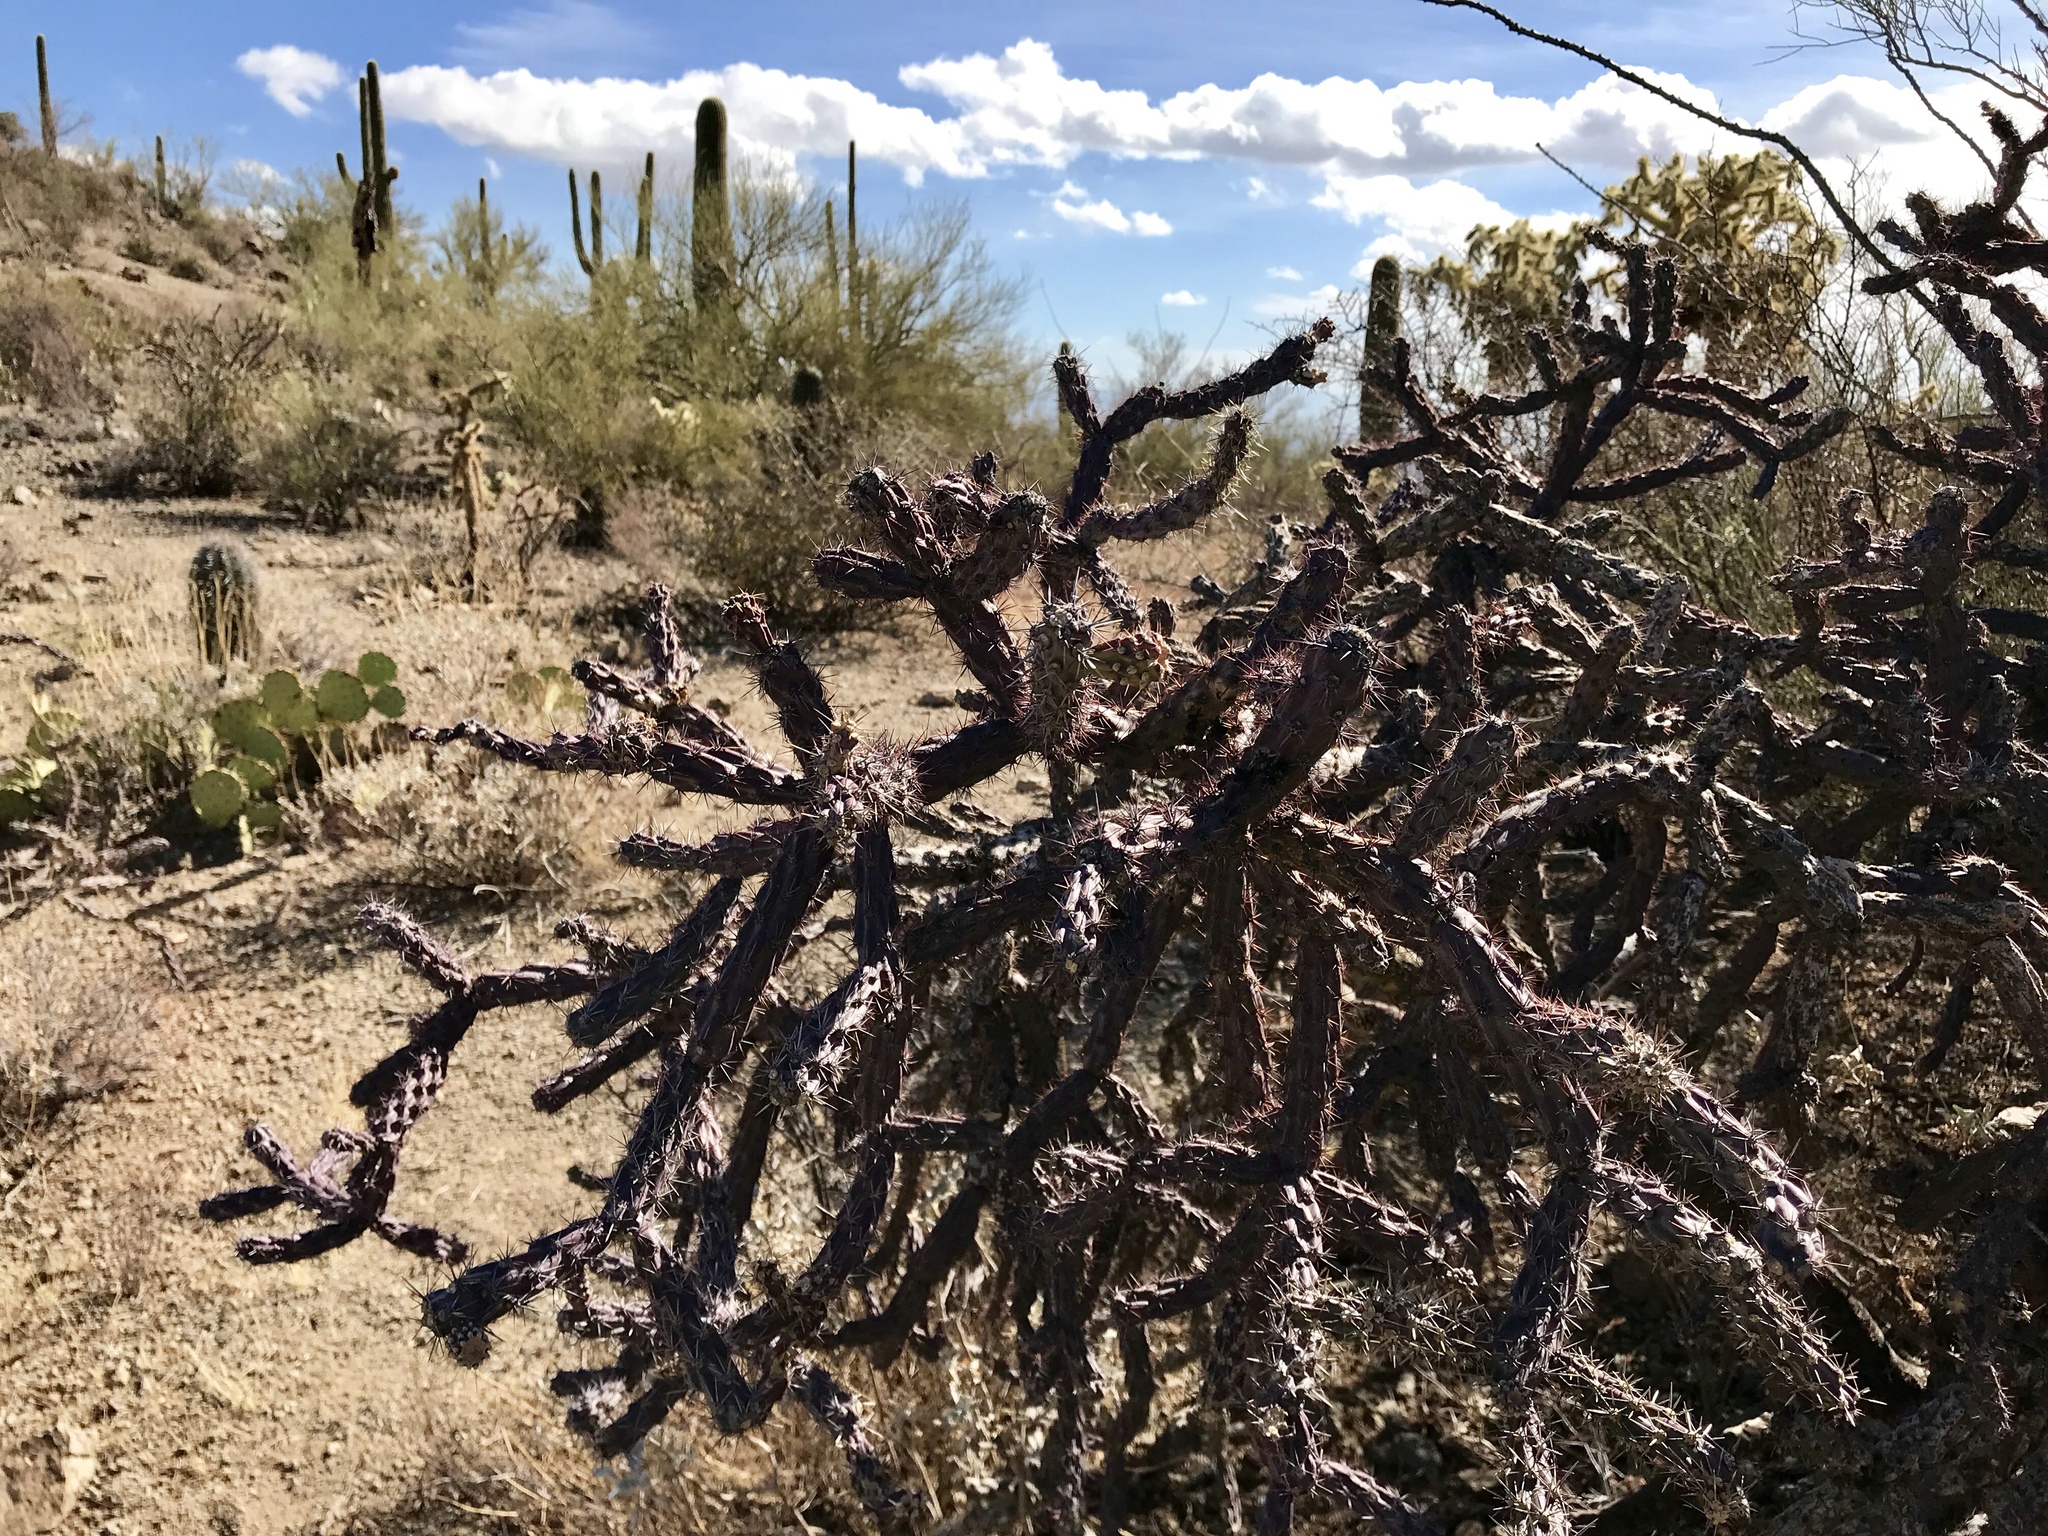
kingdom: Plantae
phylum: Tracheophyta
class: Magnoliopsida
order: Caryophyllales
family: Cactaceae
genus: Cylindropuntia
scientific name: Cylindropuntia thurberi
